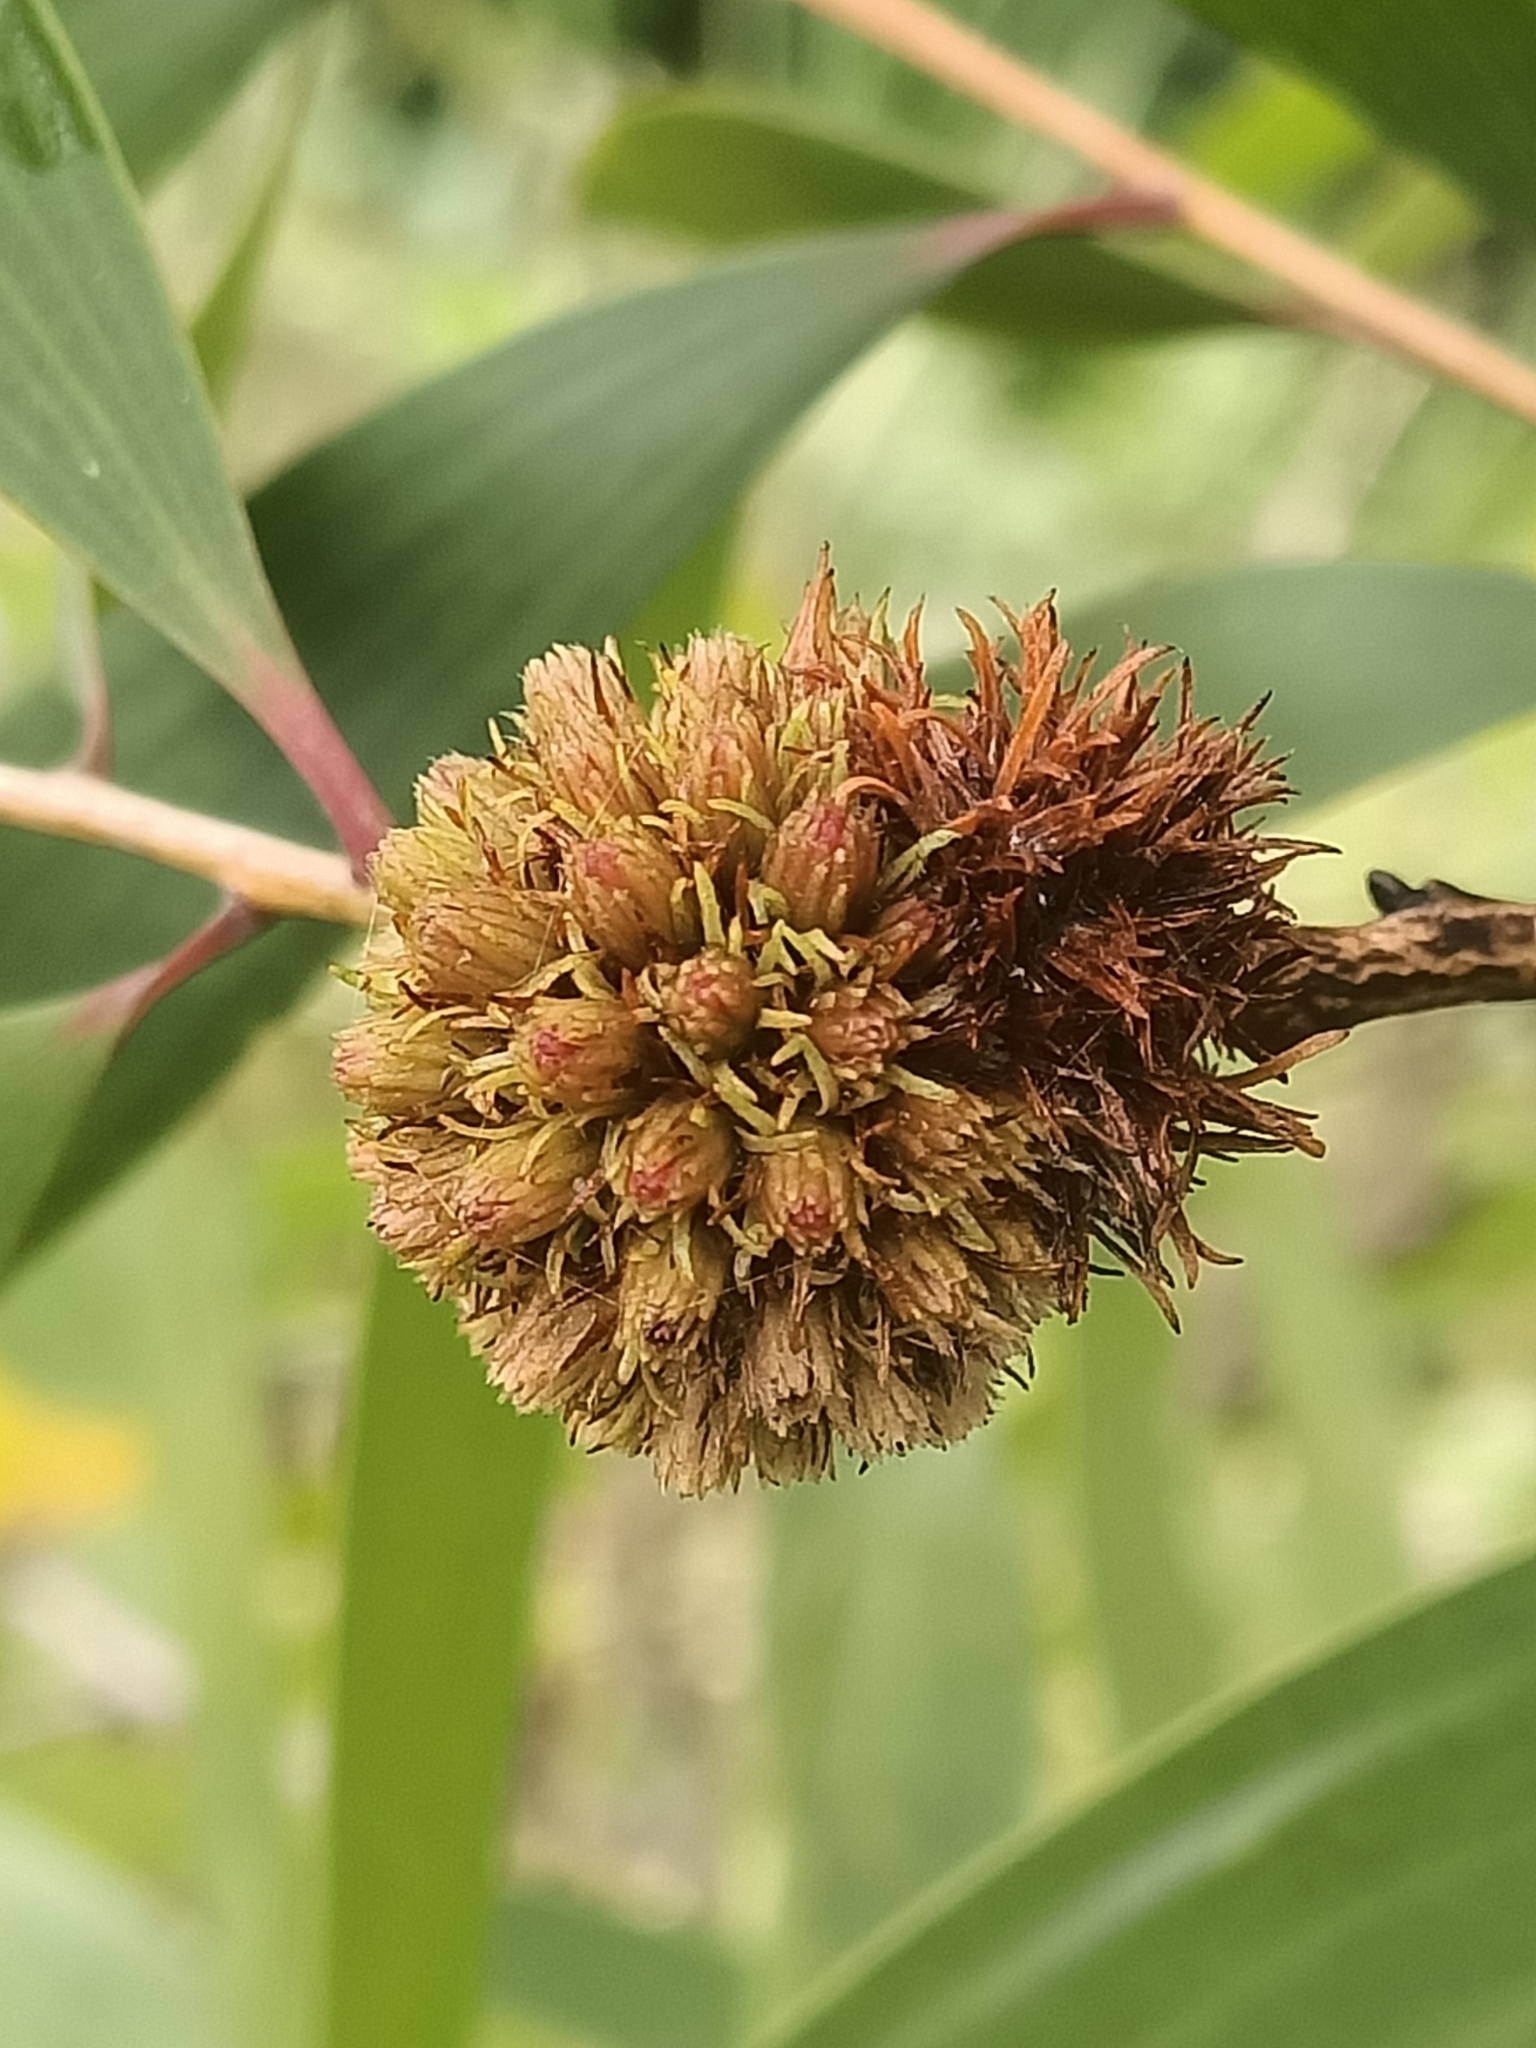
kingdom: Animalia
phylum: Arthropoda
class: Insecta
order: Hemiptera
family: Beesoniidae
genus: Beesonia
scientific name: Beesonia ferrugineus
